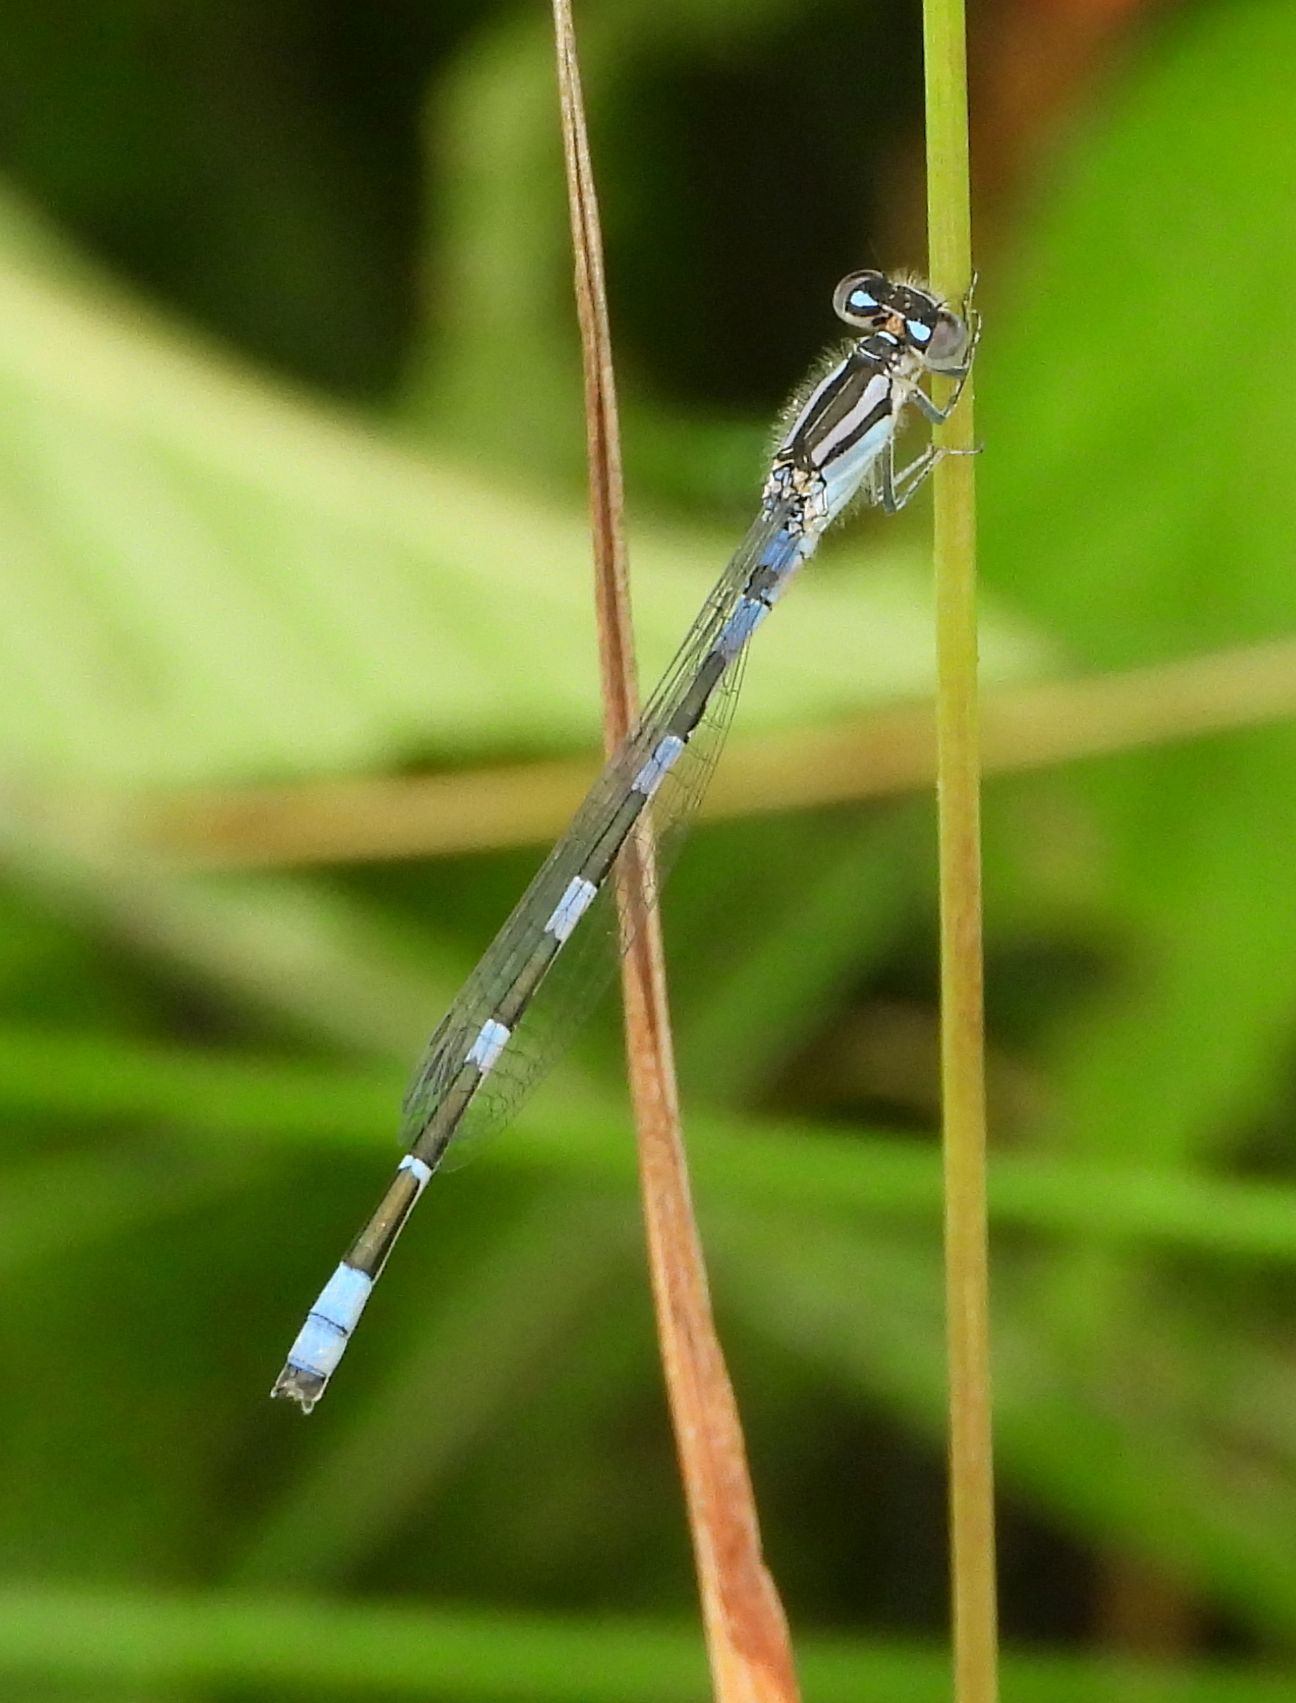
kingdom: Animalia
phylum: Arthropoda
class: Insecta
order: Odonata
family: Coenagrionidae
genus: Enallagma
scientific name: Enallagma carunculatum
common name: Tule bluet
